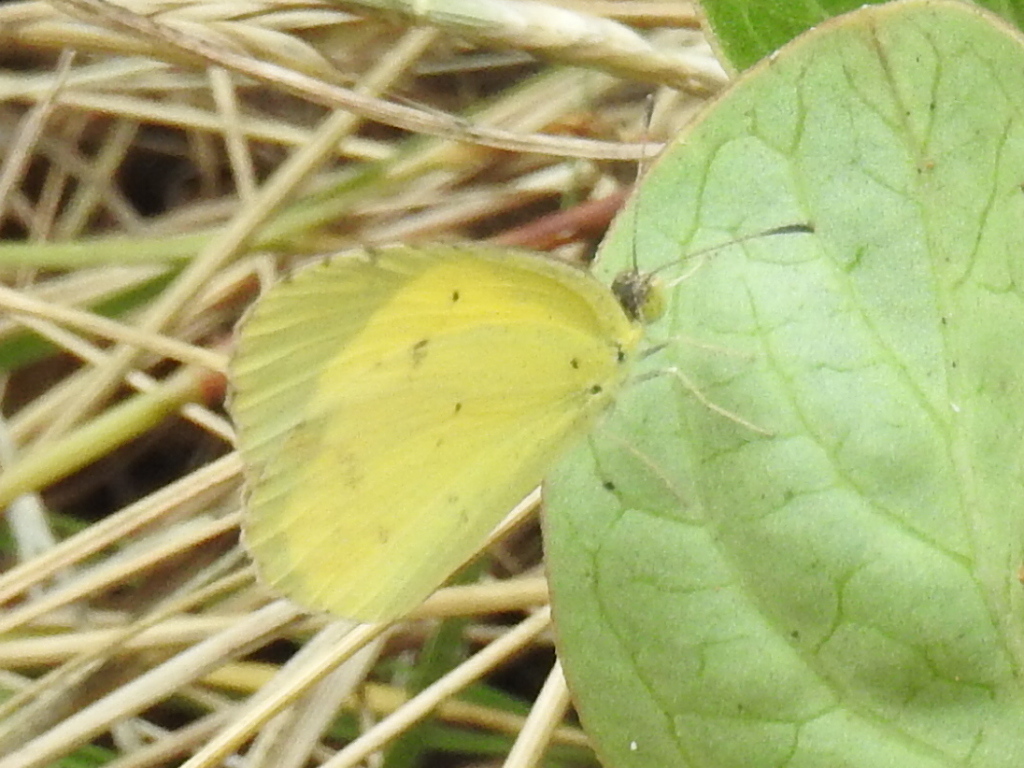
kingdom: Animalia
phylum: Arthropoda
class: Insecta
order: Lepidoptera
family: Pieridae
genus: Pyrisitia
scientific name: Pyrisitia lisa
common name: Little yellow
